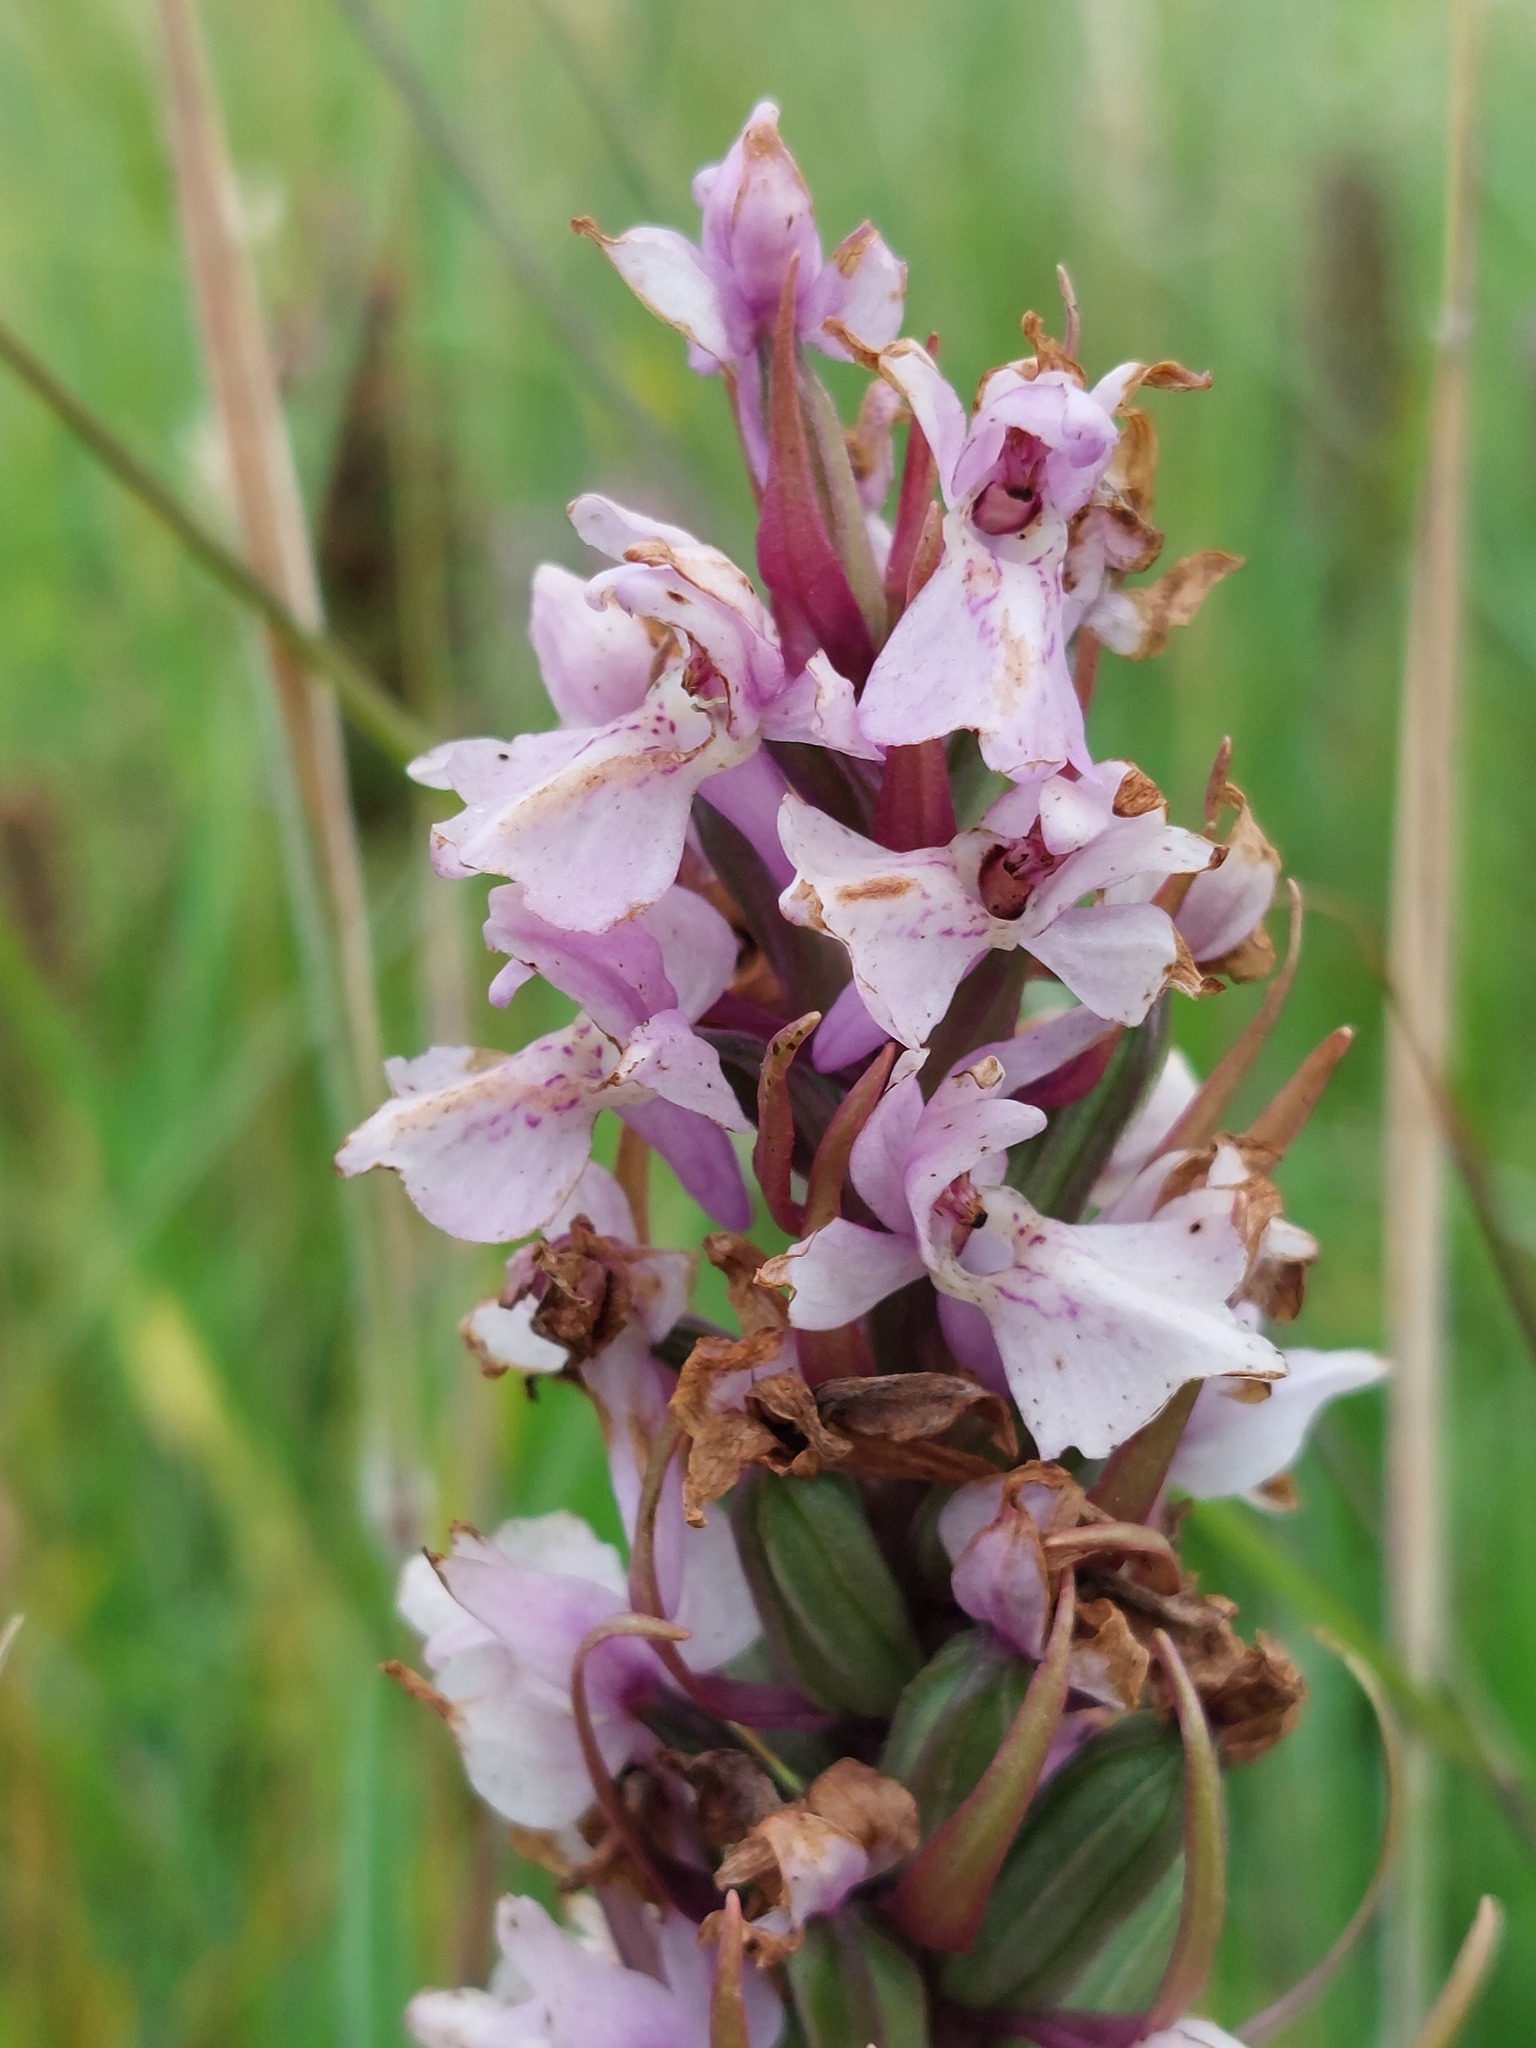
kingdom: Plantae
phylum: Tracheophyta
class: Liliopsida
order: Asparagales
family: Orchidaceae
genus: Dactylorhiza
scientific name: Dactylorhiza majalis
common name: Marsh orchid
